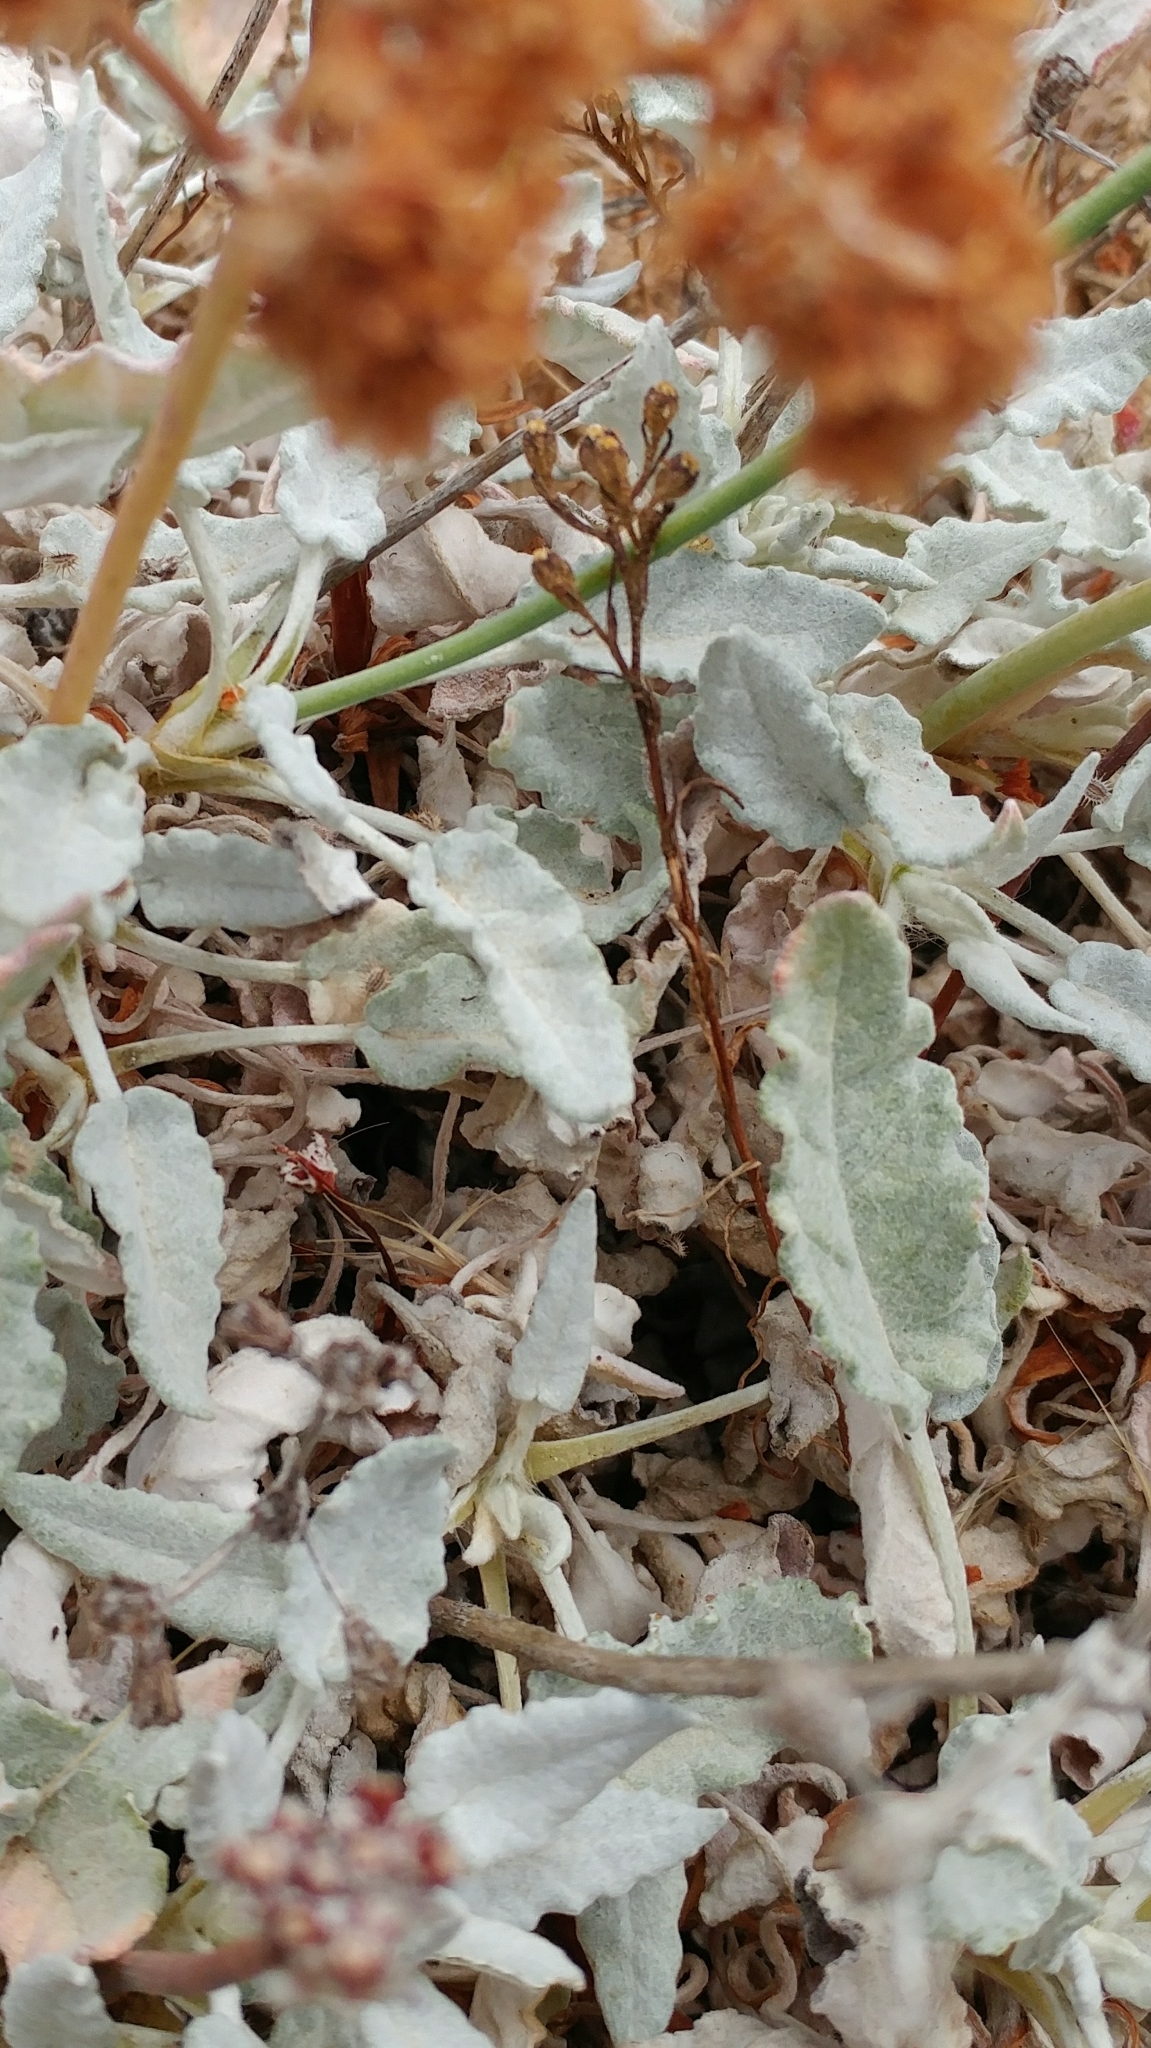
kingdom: Plantae
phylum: Tracheophyta
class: Magnoliopsida
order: Caryophyllales
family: Polygonaceae
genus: Eriogonum
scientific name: Eriogonum grande
